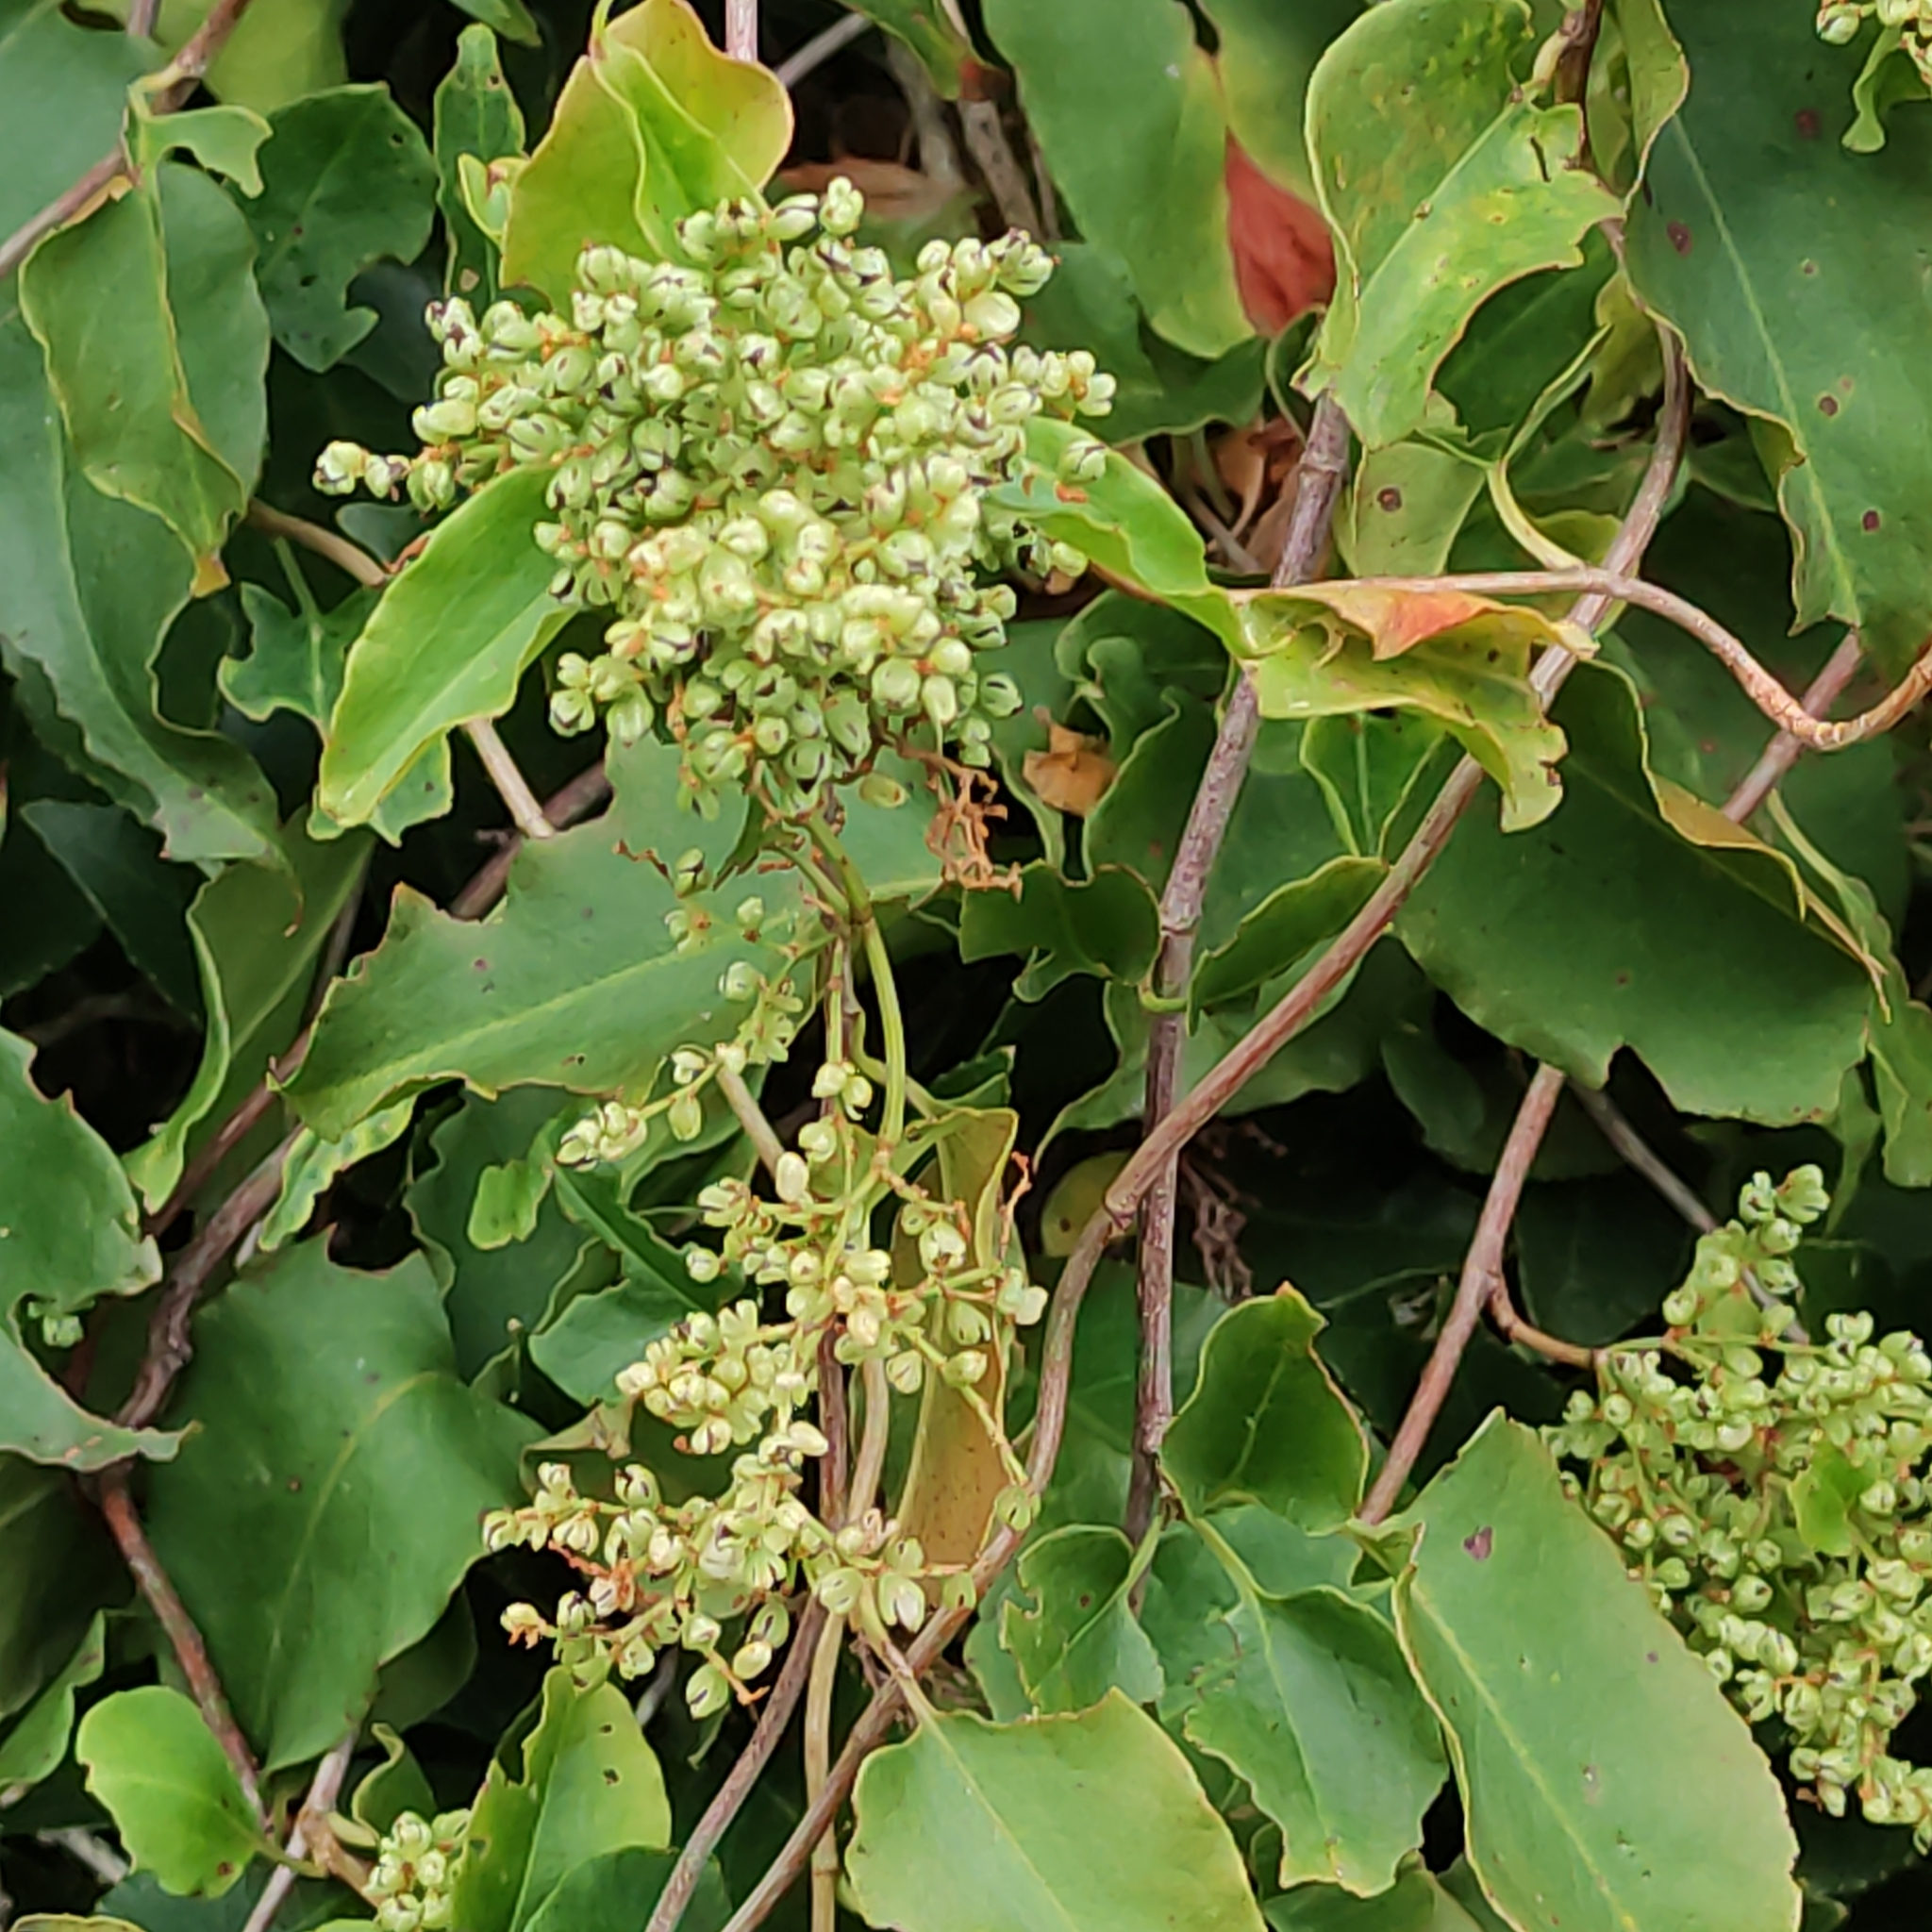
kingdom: Plantae
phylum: Tracheophyta
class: Magnoliopsida
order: Caryophyllales
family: Polygonaceae
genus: Muehlenbeckia
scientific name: Muehlenbeckia australis
